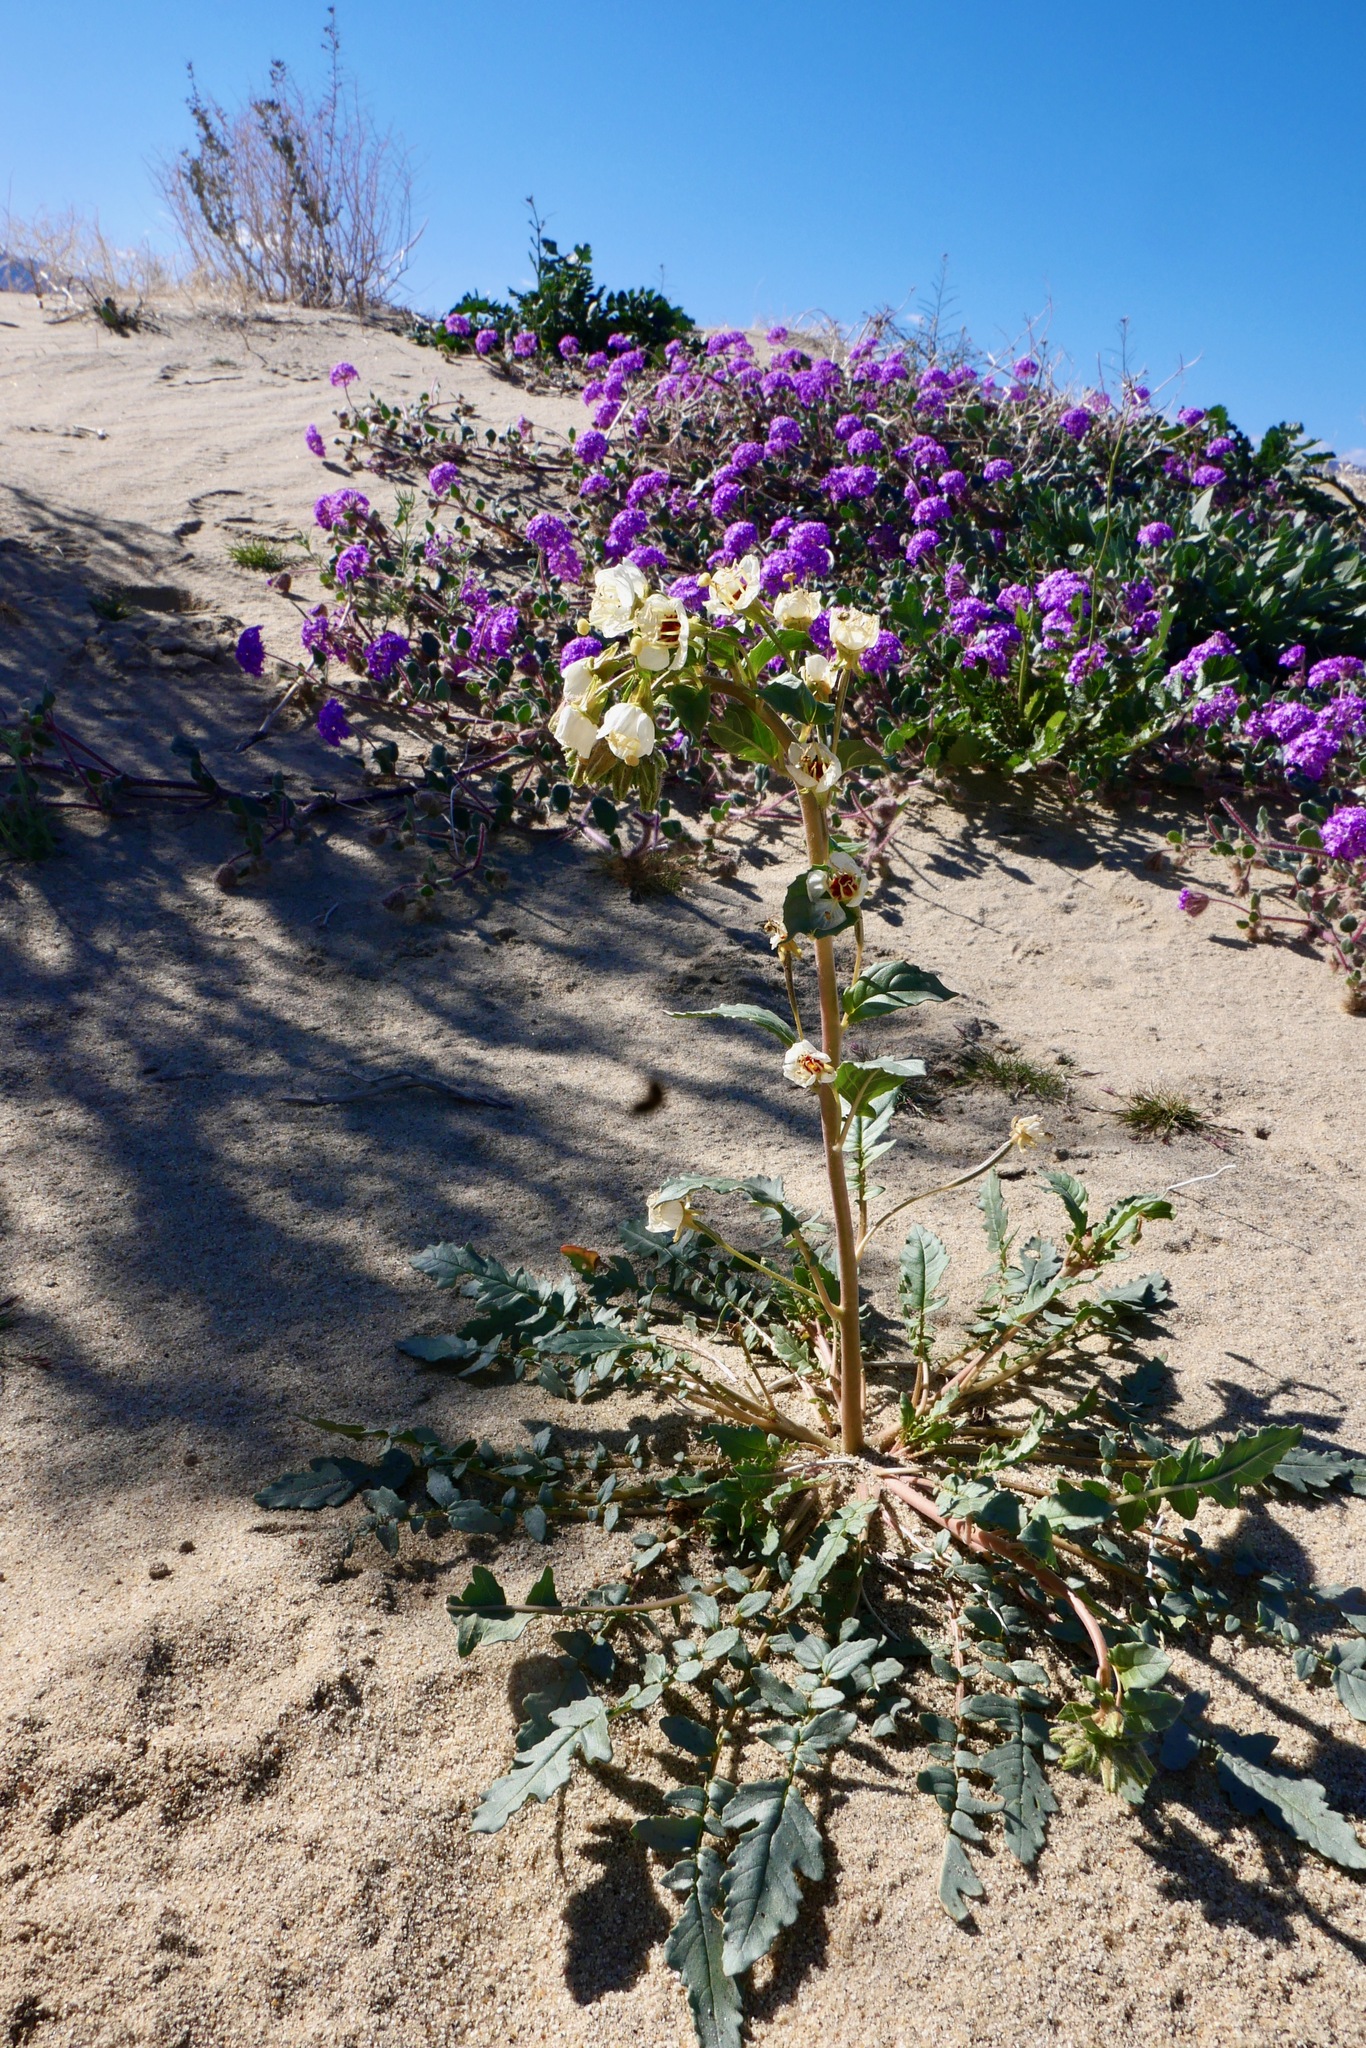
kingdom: Plantae
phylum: Tracheophyta
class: Magnoliopsida
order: Myrtales
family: Onagraceae
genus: Chylismia
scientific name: Chylismia claviformis
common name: Browneyes
